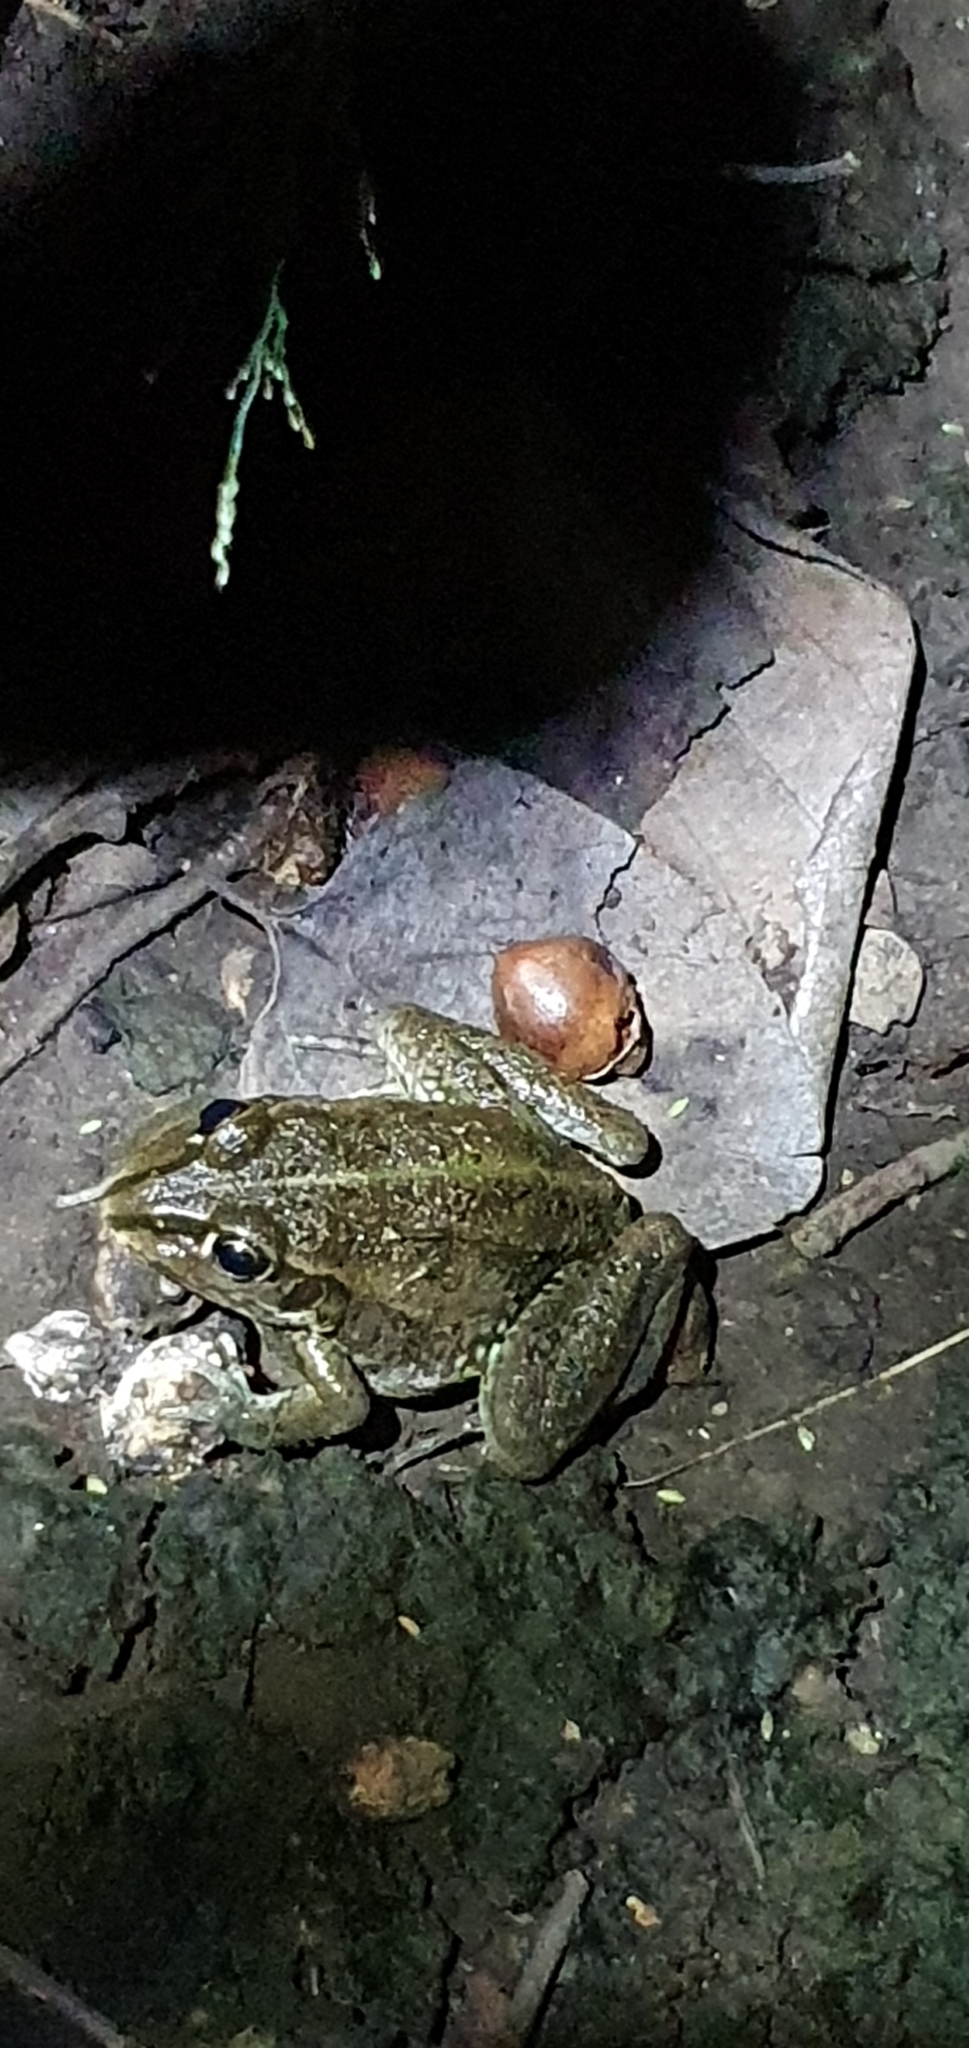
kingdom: Animalia
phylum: Chordata
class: Amphibia
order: Anura
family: Pelodryadidae
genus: Ranoidea
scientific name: Ranoidea alboguttata
